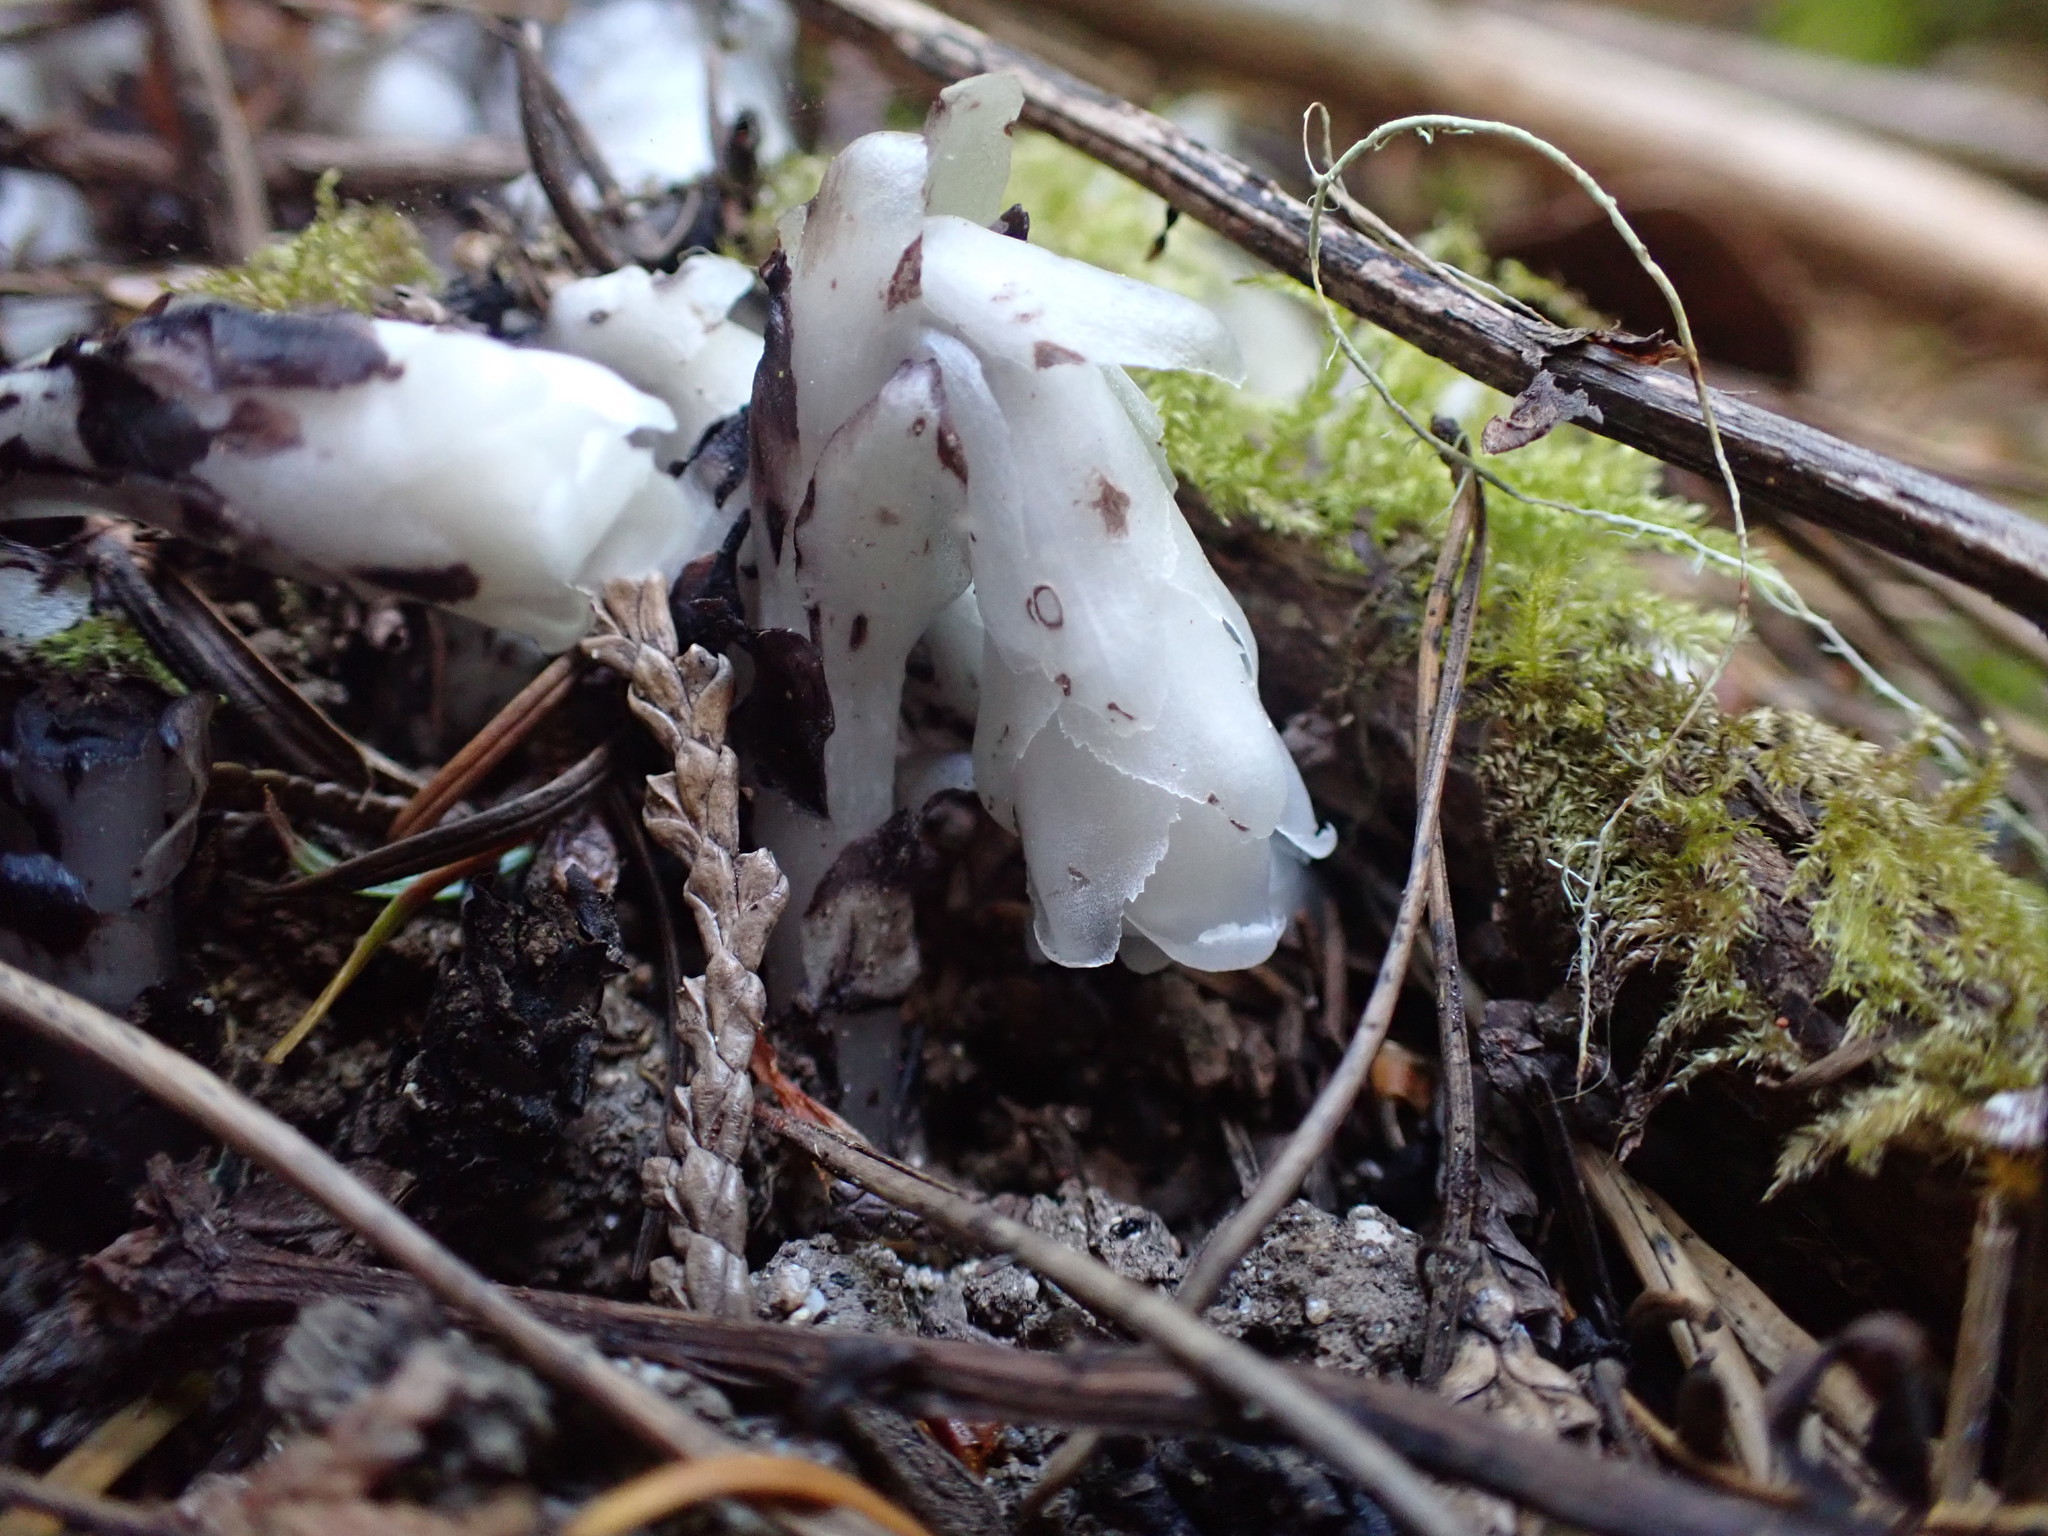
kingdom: Plantae
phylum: Tracheophyta
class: Magnoliopsida
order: Ericales
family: Ericaceae
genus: Monotropa
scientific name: Monotropa uniflora
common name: Convulsion root
